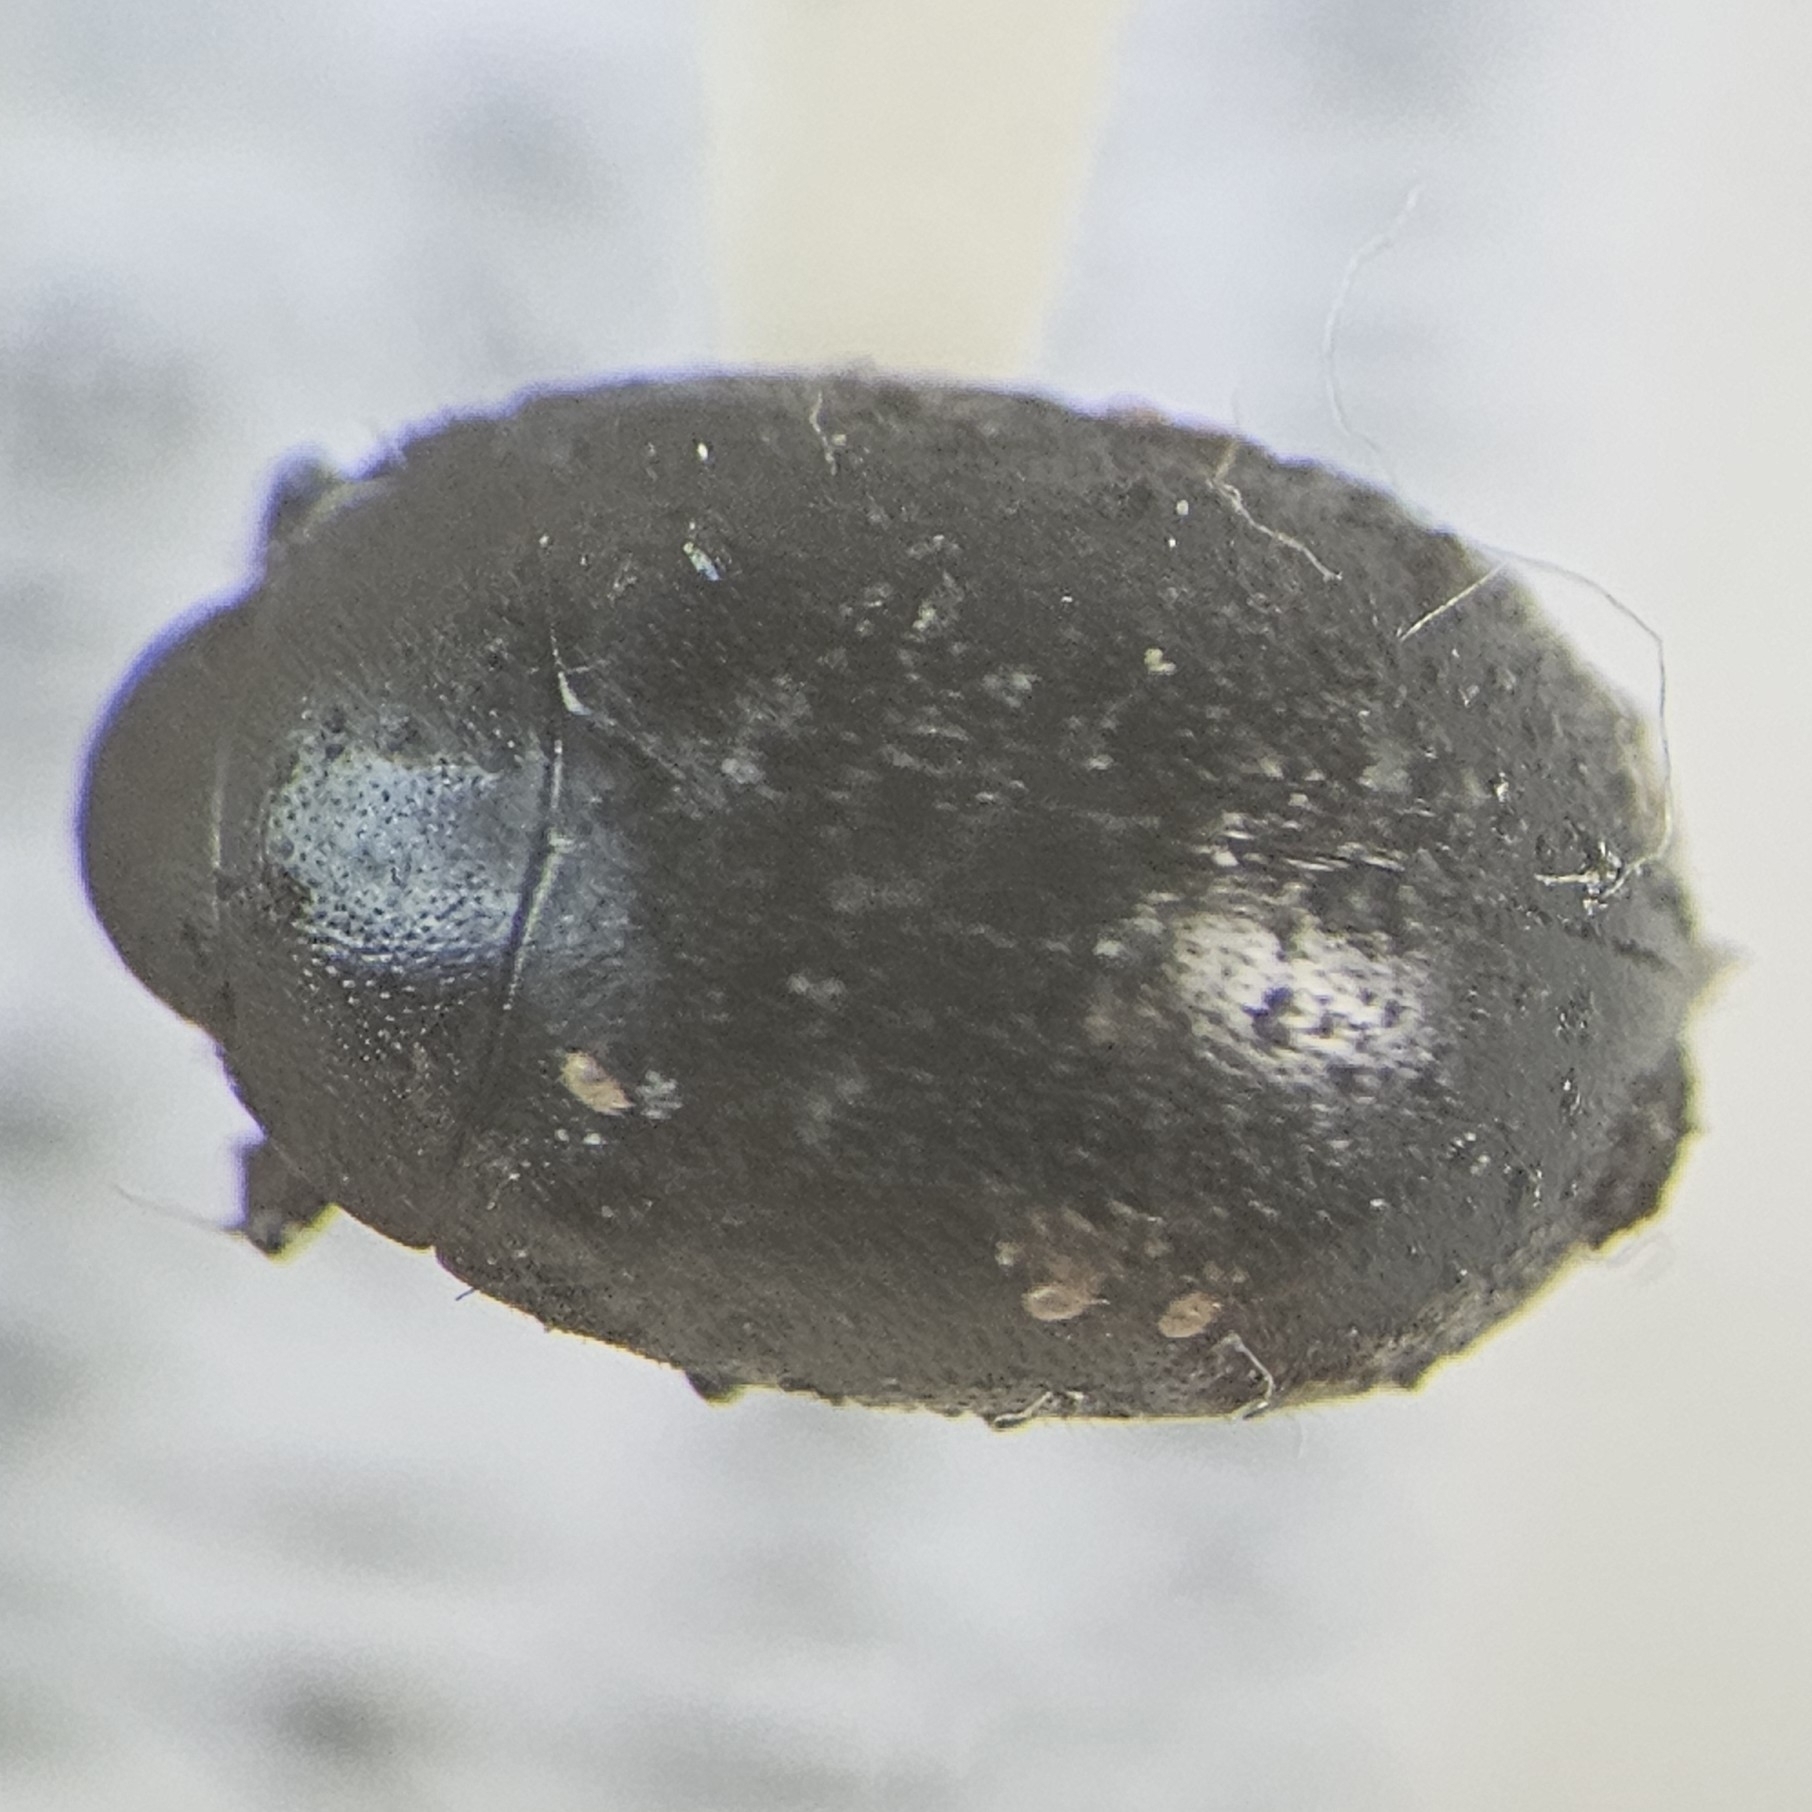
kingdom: Animalia
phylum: Arthropoda
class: Insecta
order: Coleoptera
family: Nosodendridae
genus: Nosodendron
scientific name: Nosodendron unicolor
